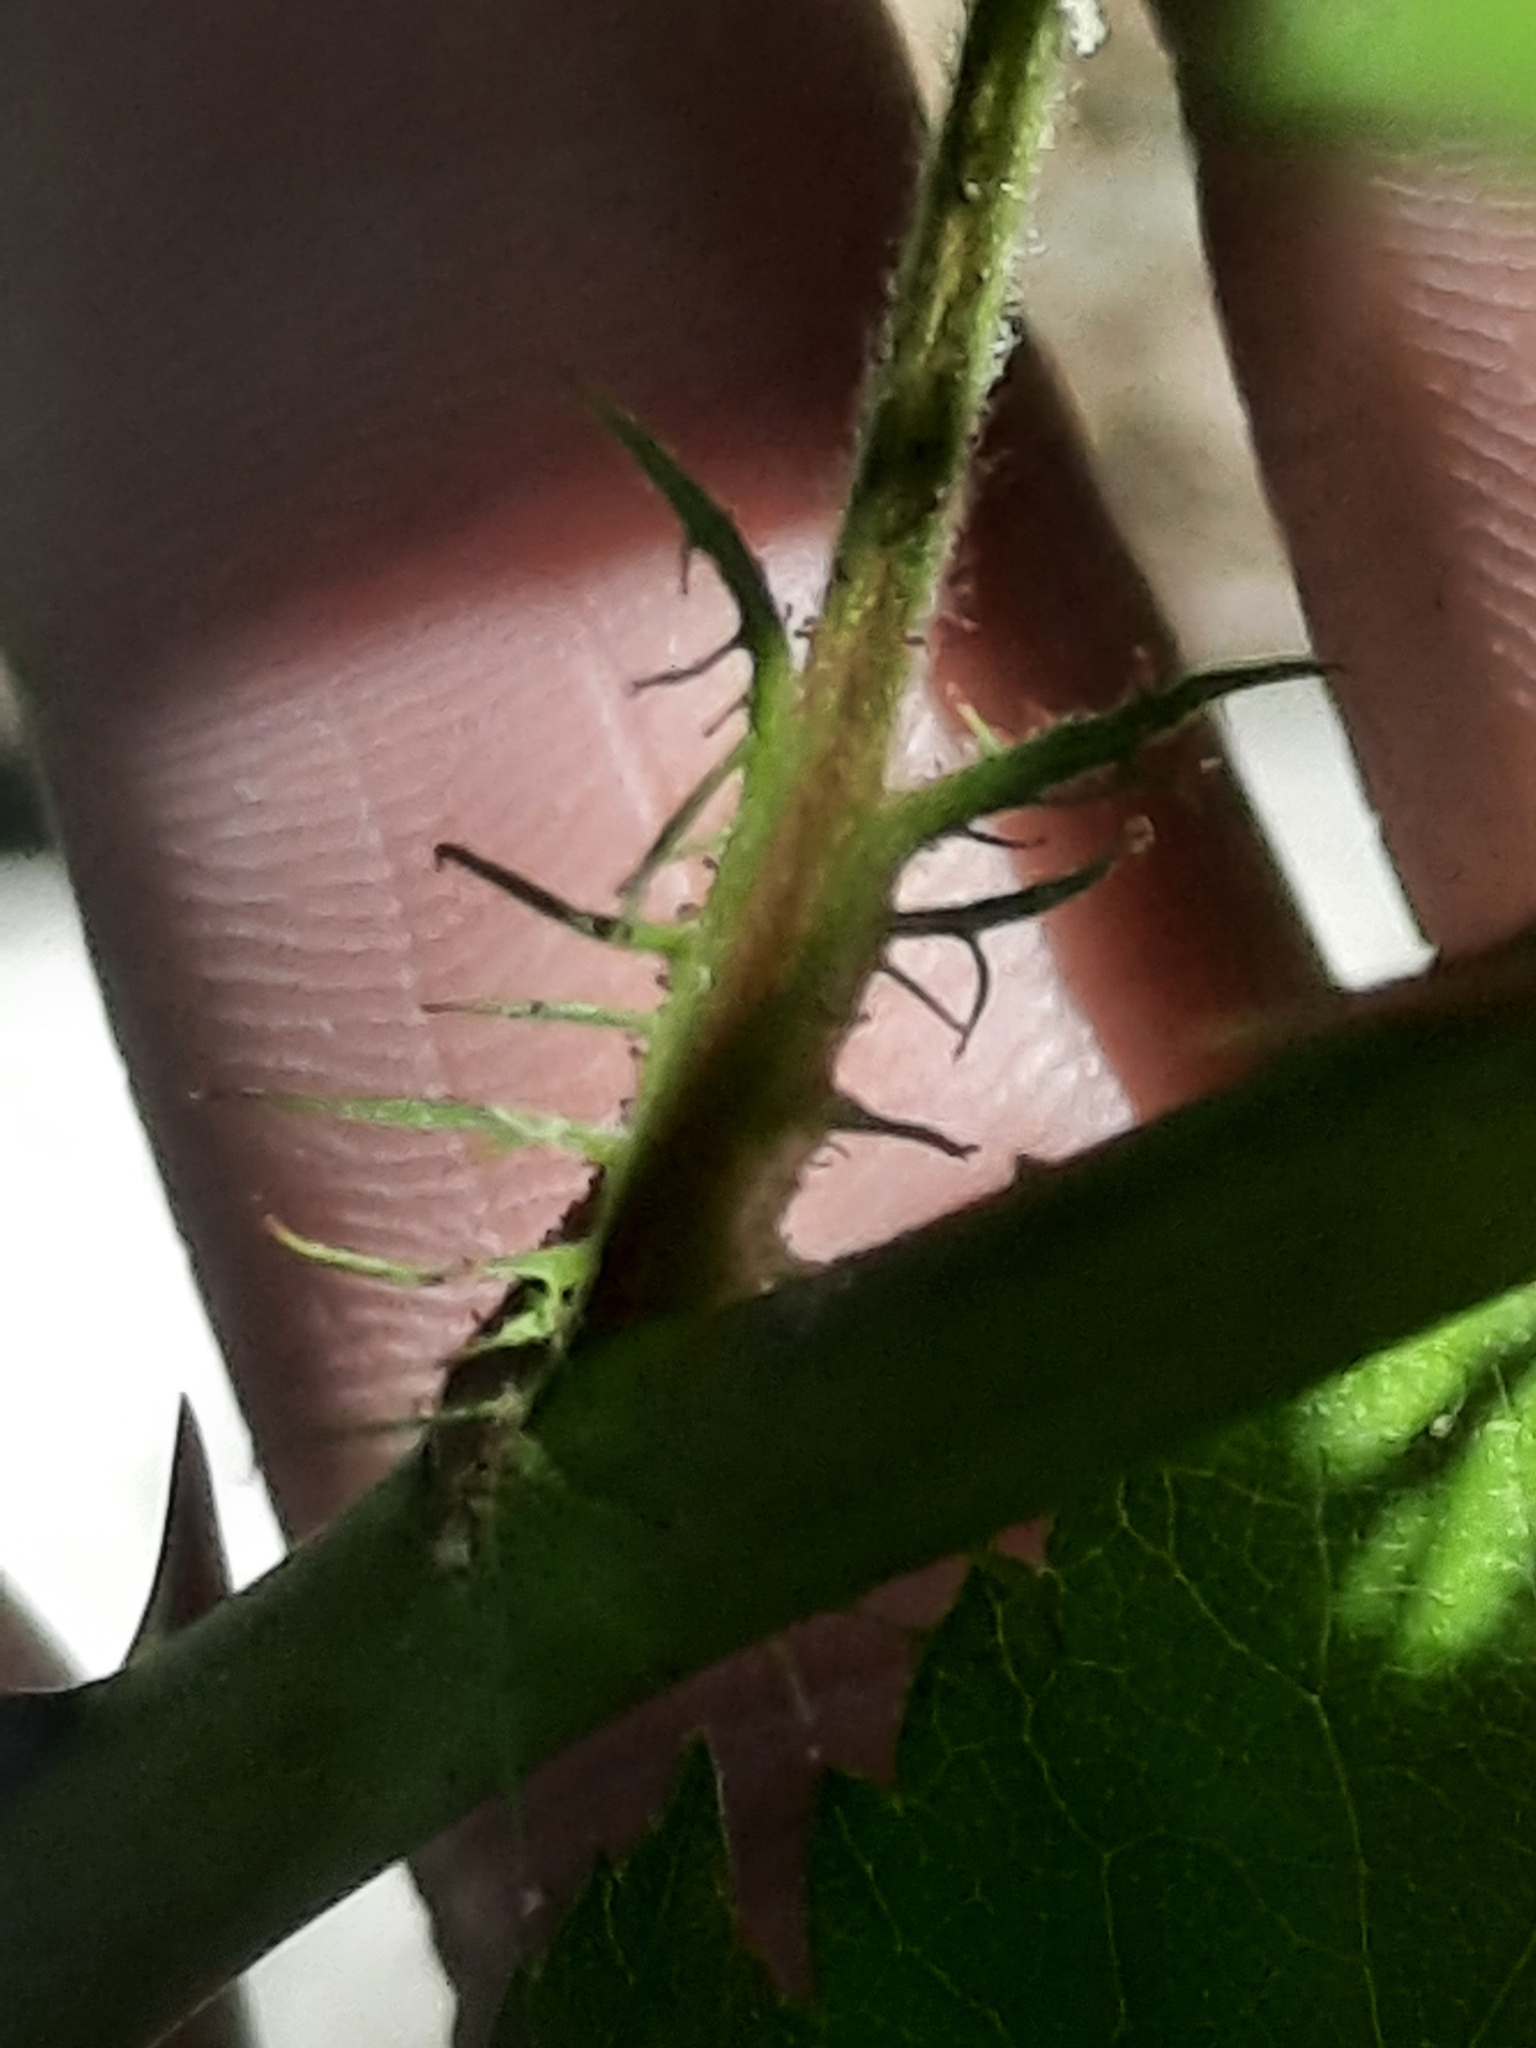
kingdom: Plantae
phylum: Tracheophyta
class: Magnoliopsida
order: Rosales
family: Rosaceae
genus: Rosa
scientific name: Rosa multiflora
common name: Multiflora rose
